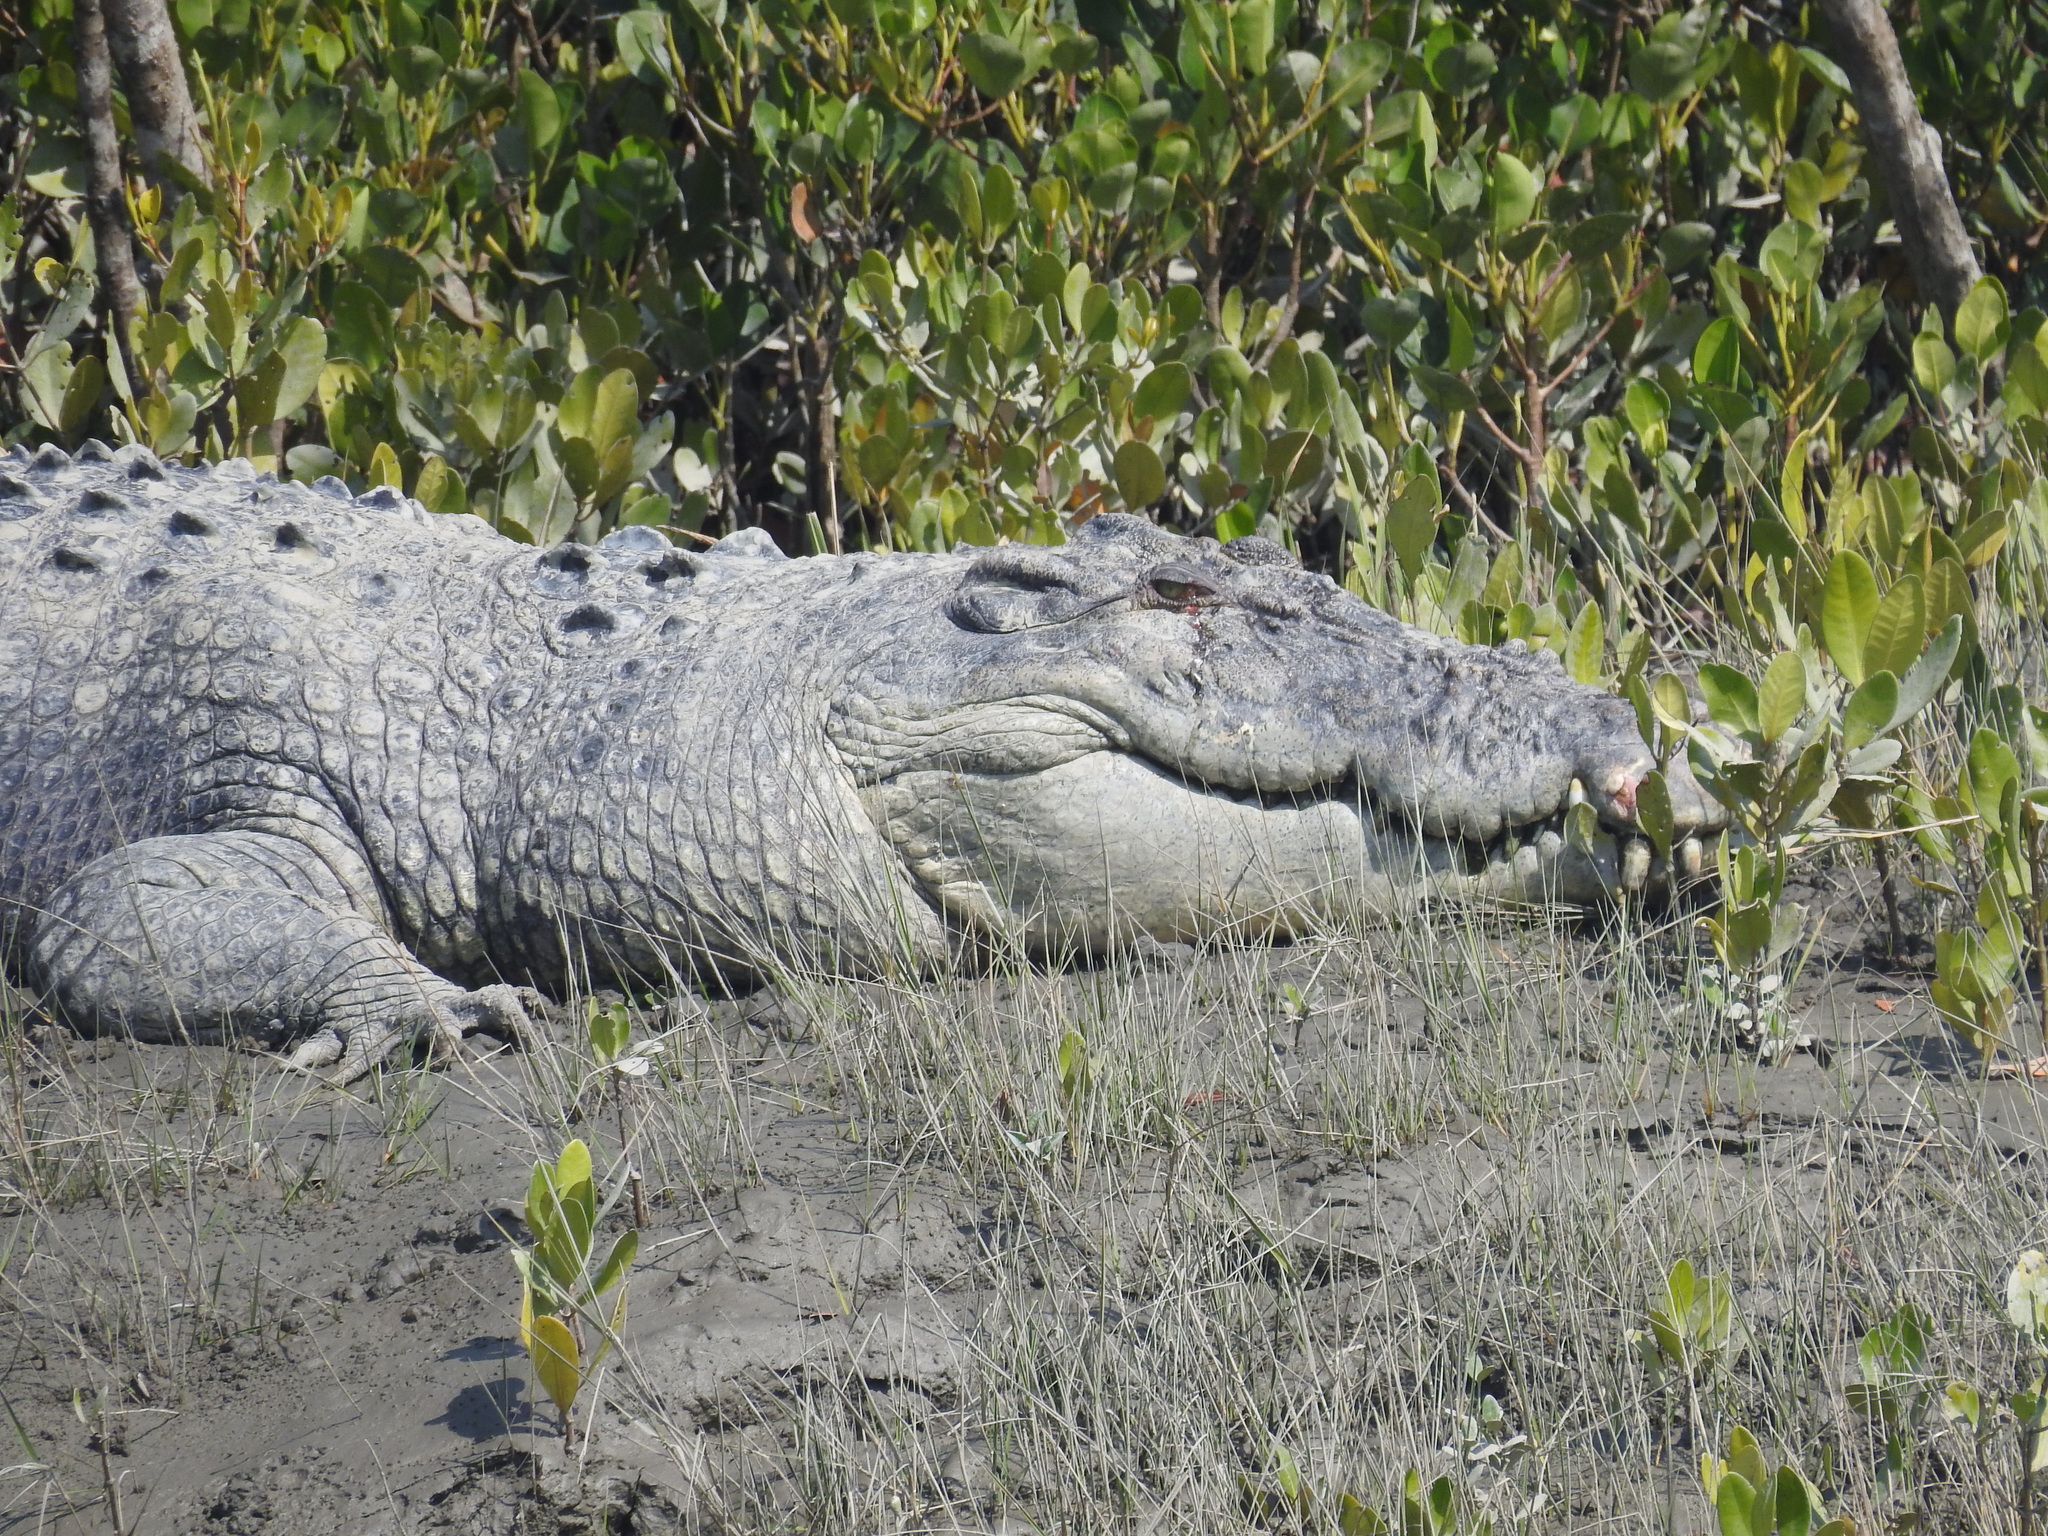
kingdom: Animalia
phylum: Chordata
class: Crocodylia
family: Crocodylidae
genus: Crocodylus
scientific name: Crocodylus porosus
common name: Saltwater crocodile
